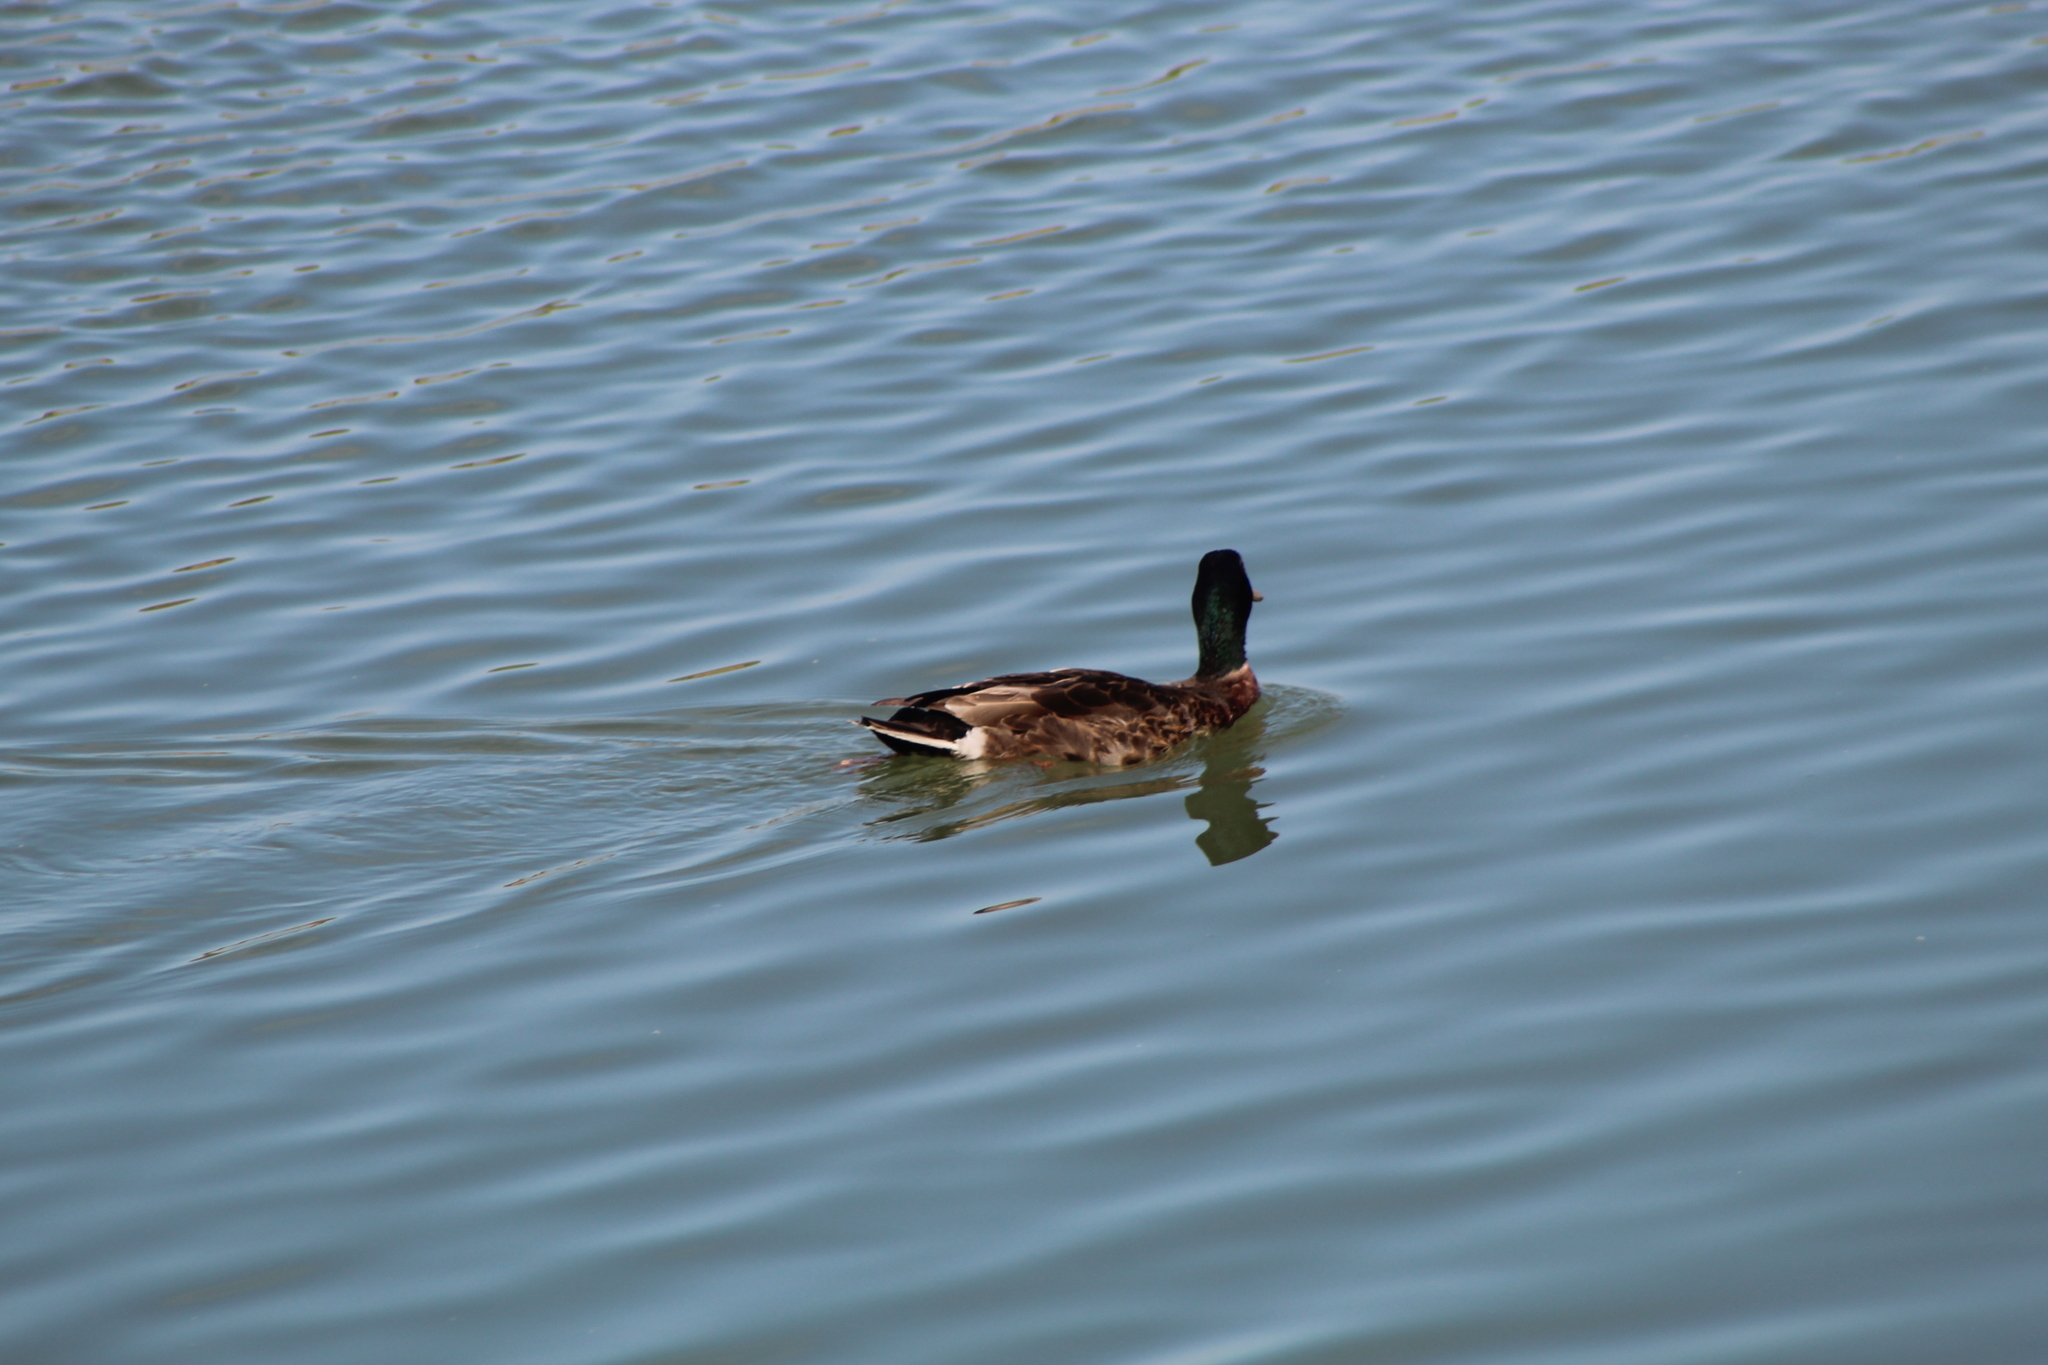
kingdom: Animalia
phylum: Chordata
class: Aves
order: Anseriformes
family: Anatidae
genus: Anas
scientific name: Anas platyrhynchos
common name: Mallard
